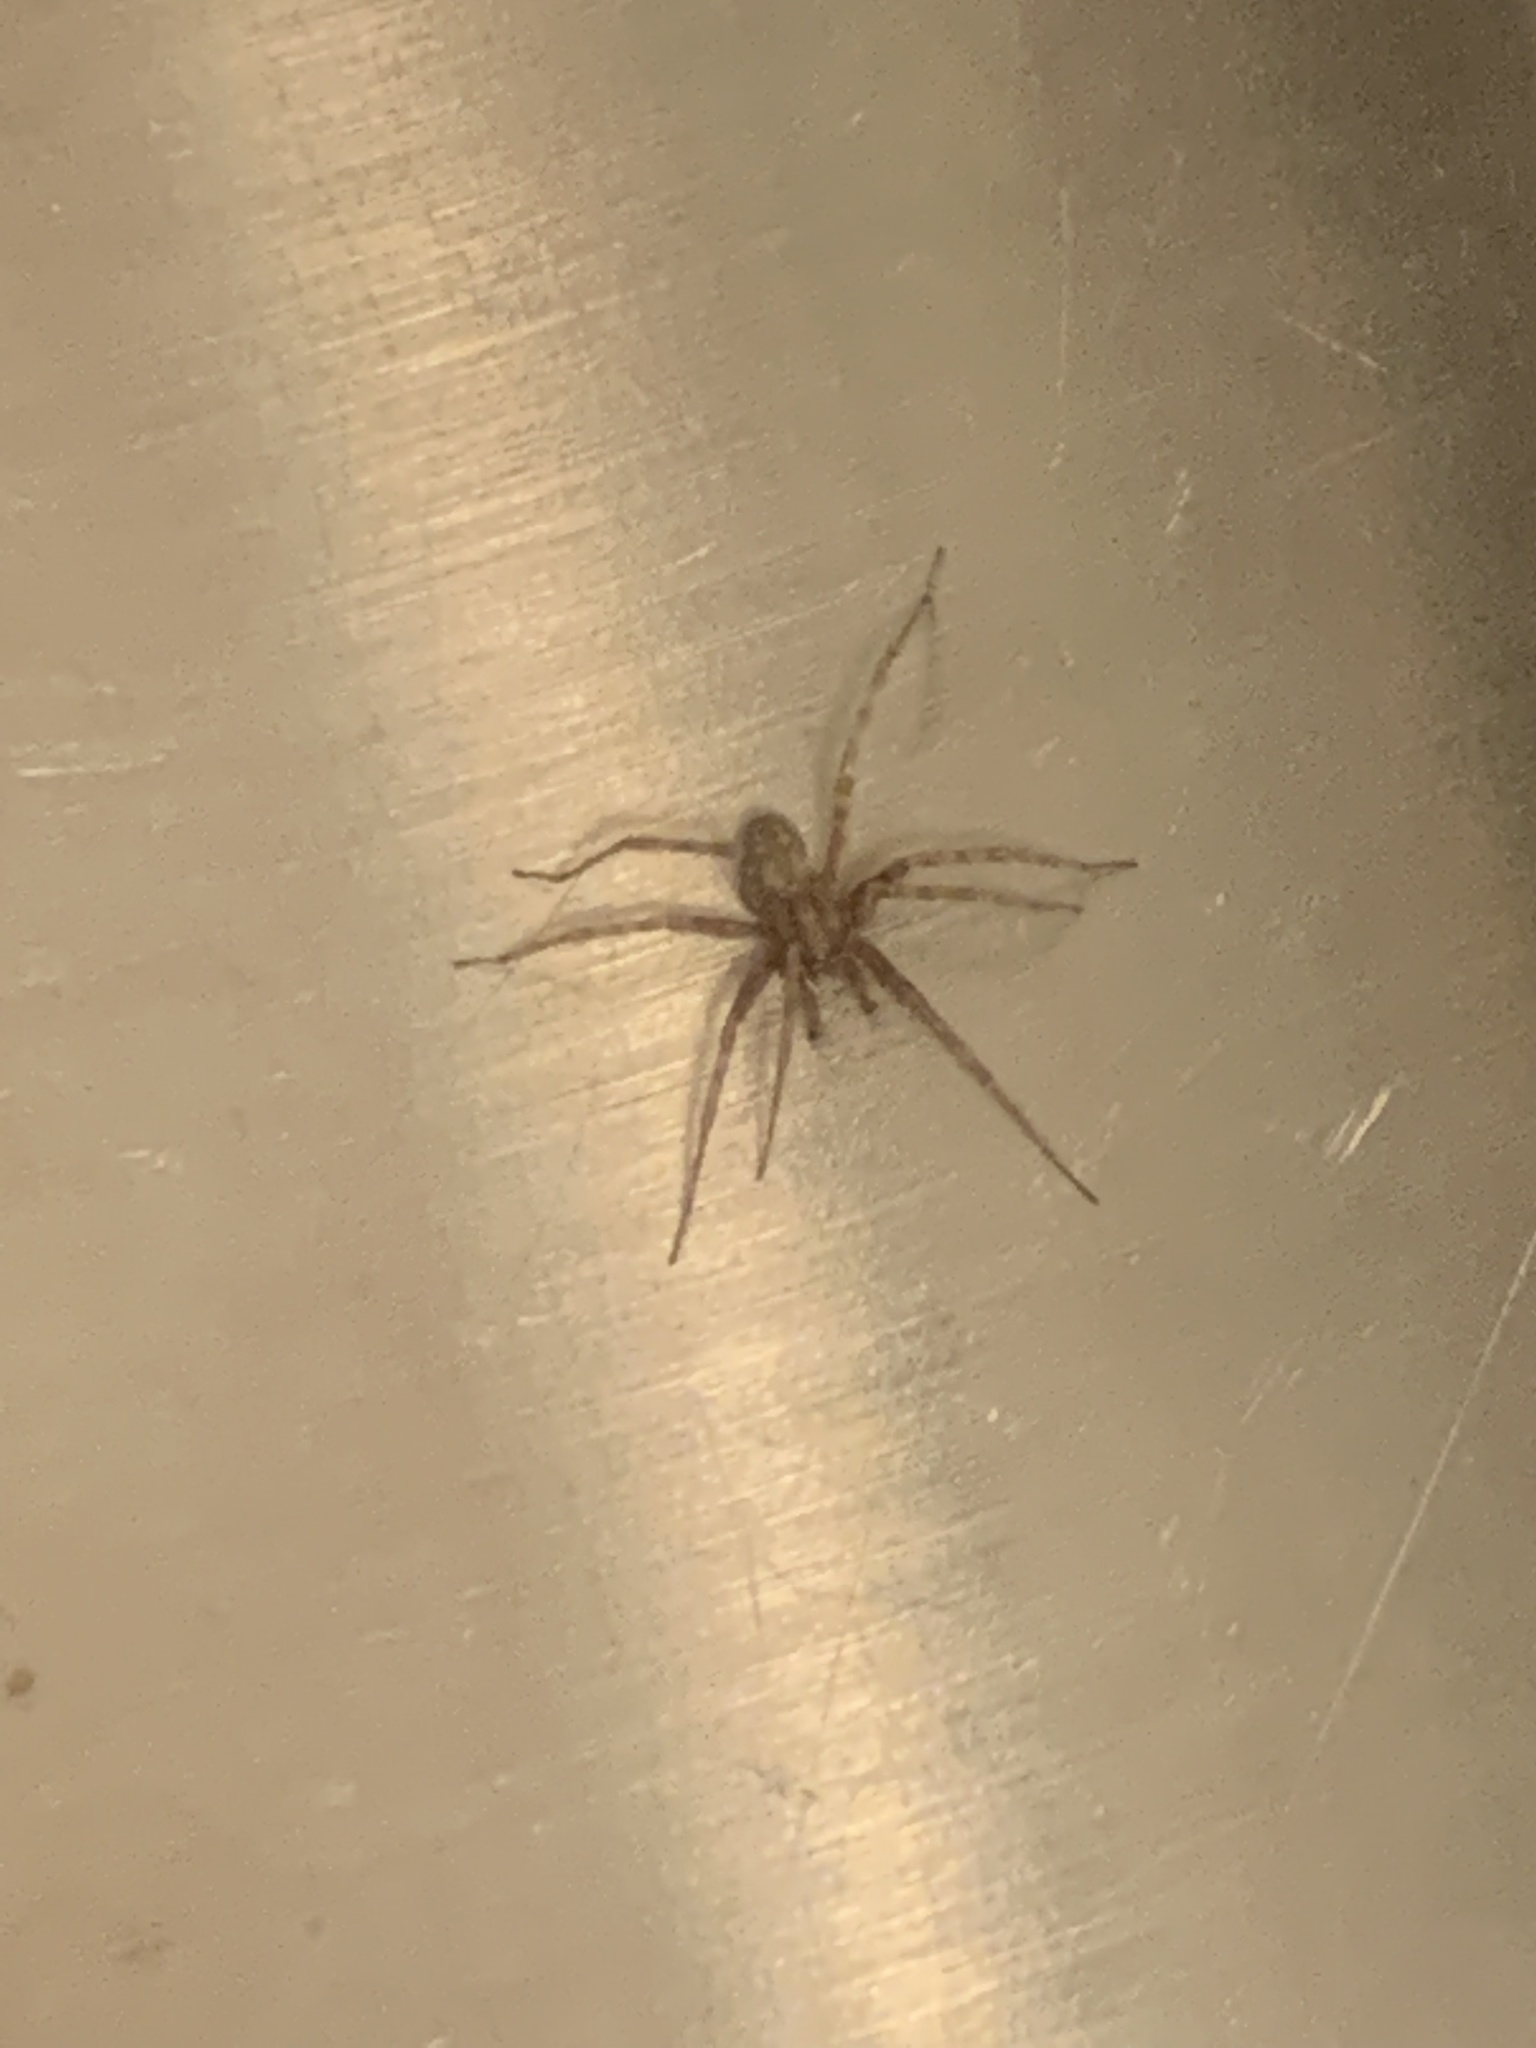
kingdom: Animalia
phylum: Arthropoda
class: Arachnida
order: Araneae
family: Agelenidae
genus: Tegenaria
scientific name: Tegenaria domestica
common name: Barn funnel weaver
